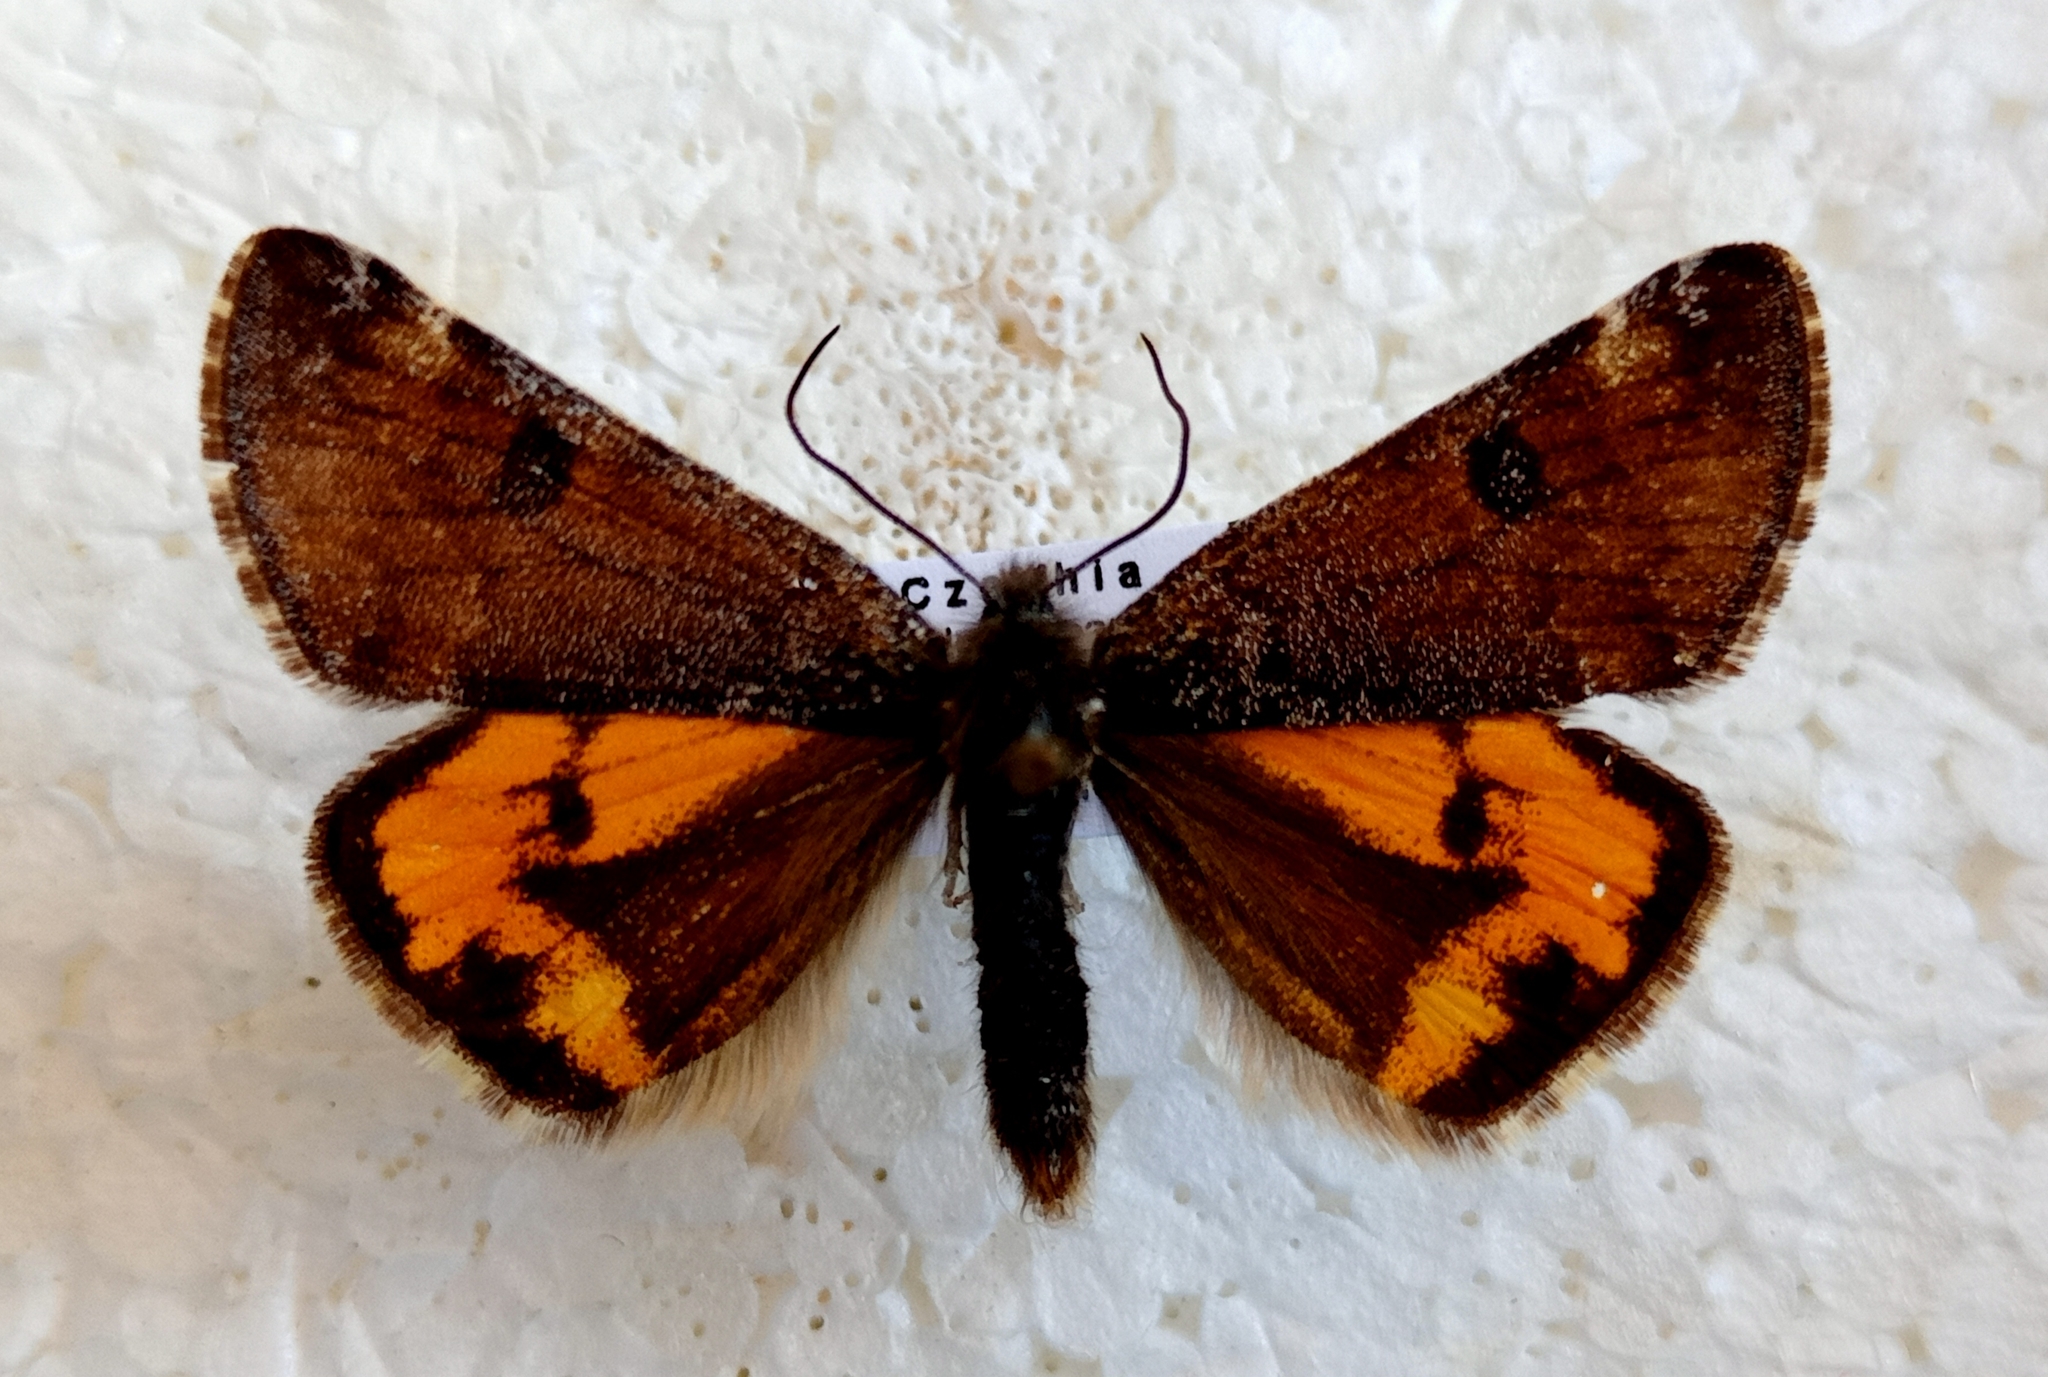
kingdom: Animalia
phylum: Arthropoda
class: Insecta
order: Lepidoptera
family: Geometridae
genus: Archiearis
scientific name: Archiearis parthenias
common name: Orange underwing
